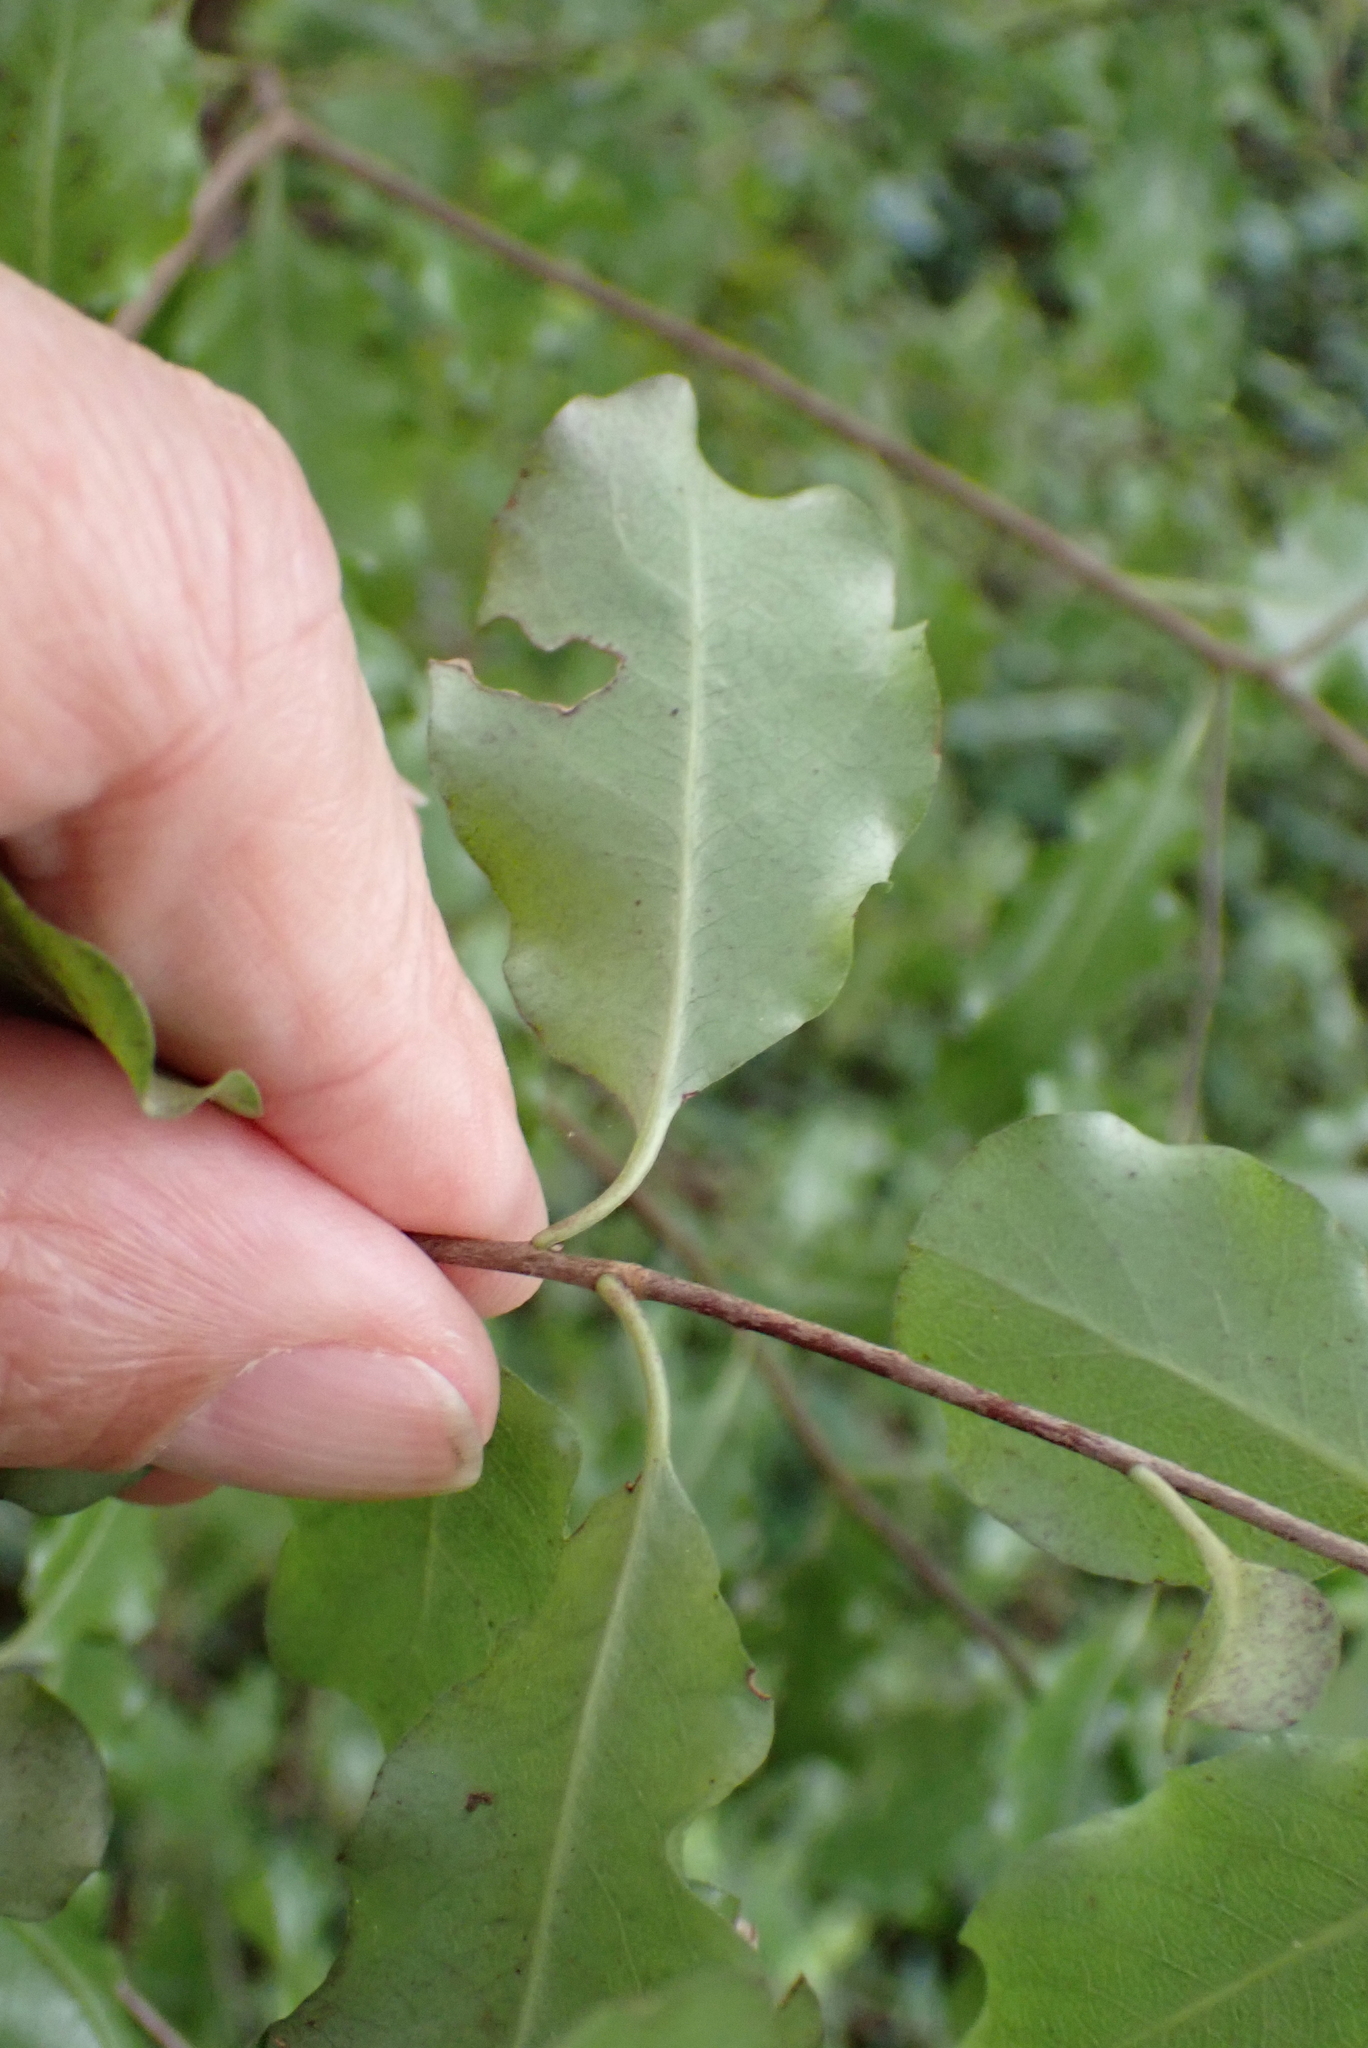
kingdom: Plantae
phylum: Tracheophyta
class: Magnoliopsida
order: Apiales
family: Pittosporaceae
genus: Pittosporum
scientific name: Pittosporum tenuifolium
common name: Kohuhu
